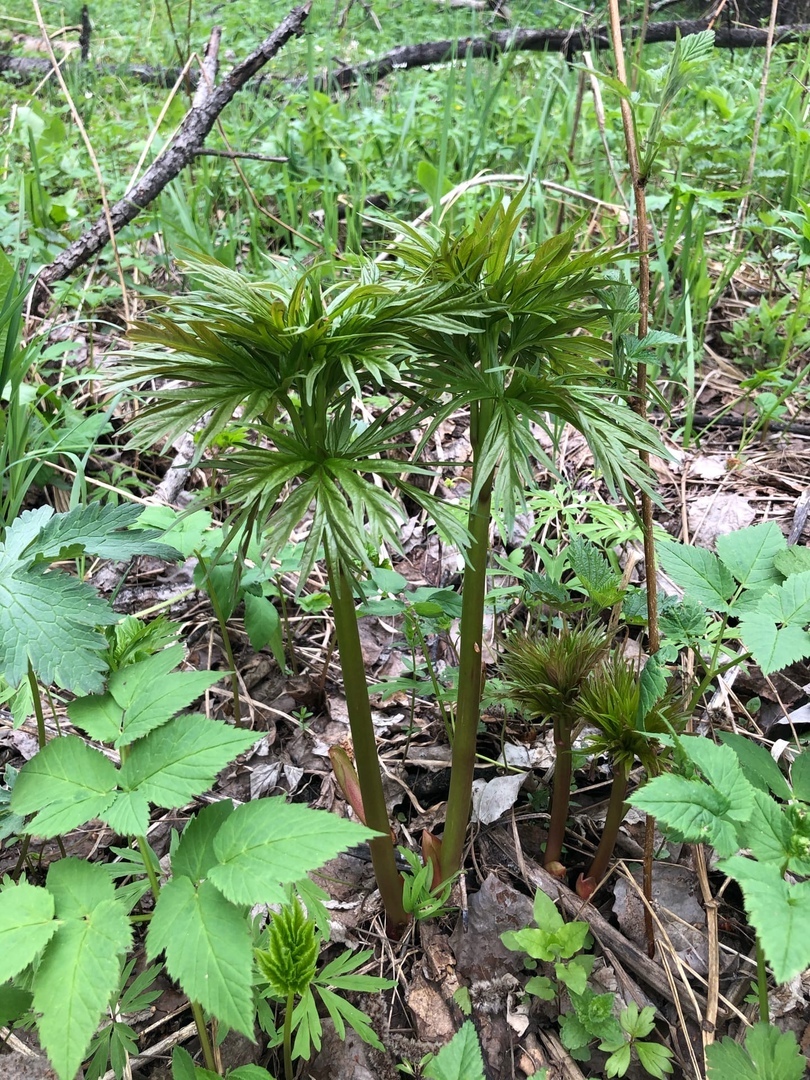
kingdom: Plantae
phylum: Tracheophyta
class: Magnoliopsida
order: Saxifragales
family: Paeoniaceae
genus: Paeonia
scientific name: Paeonia anomala
